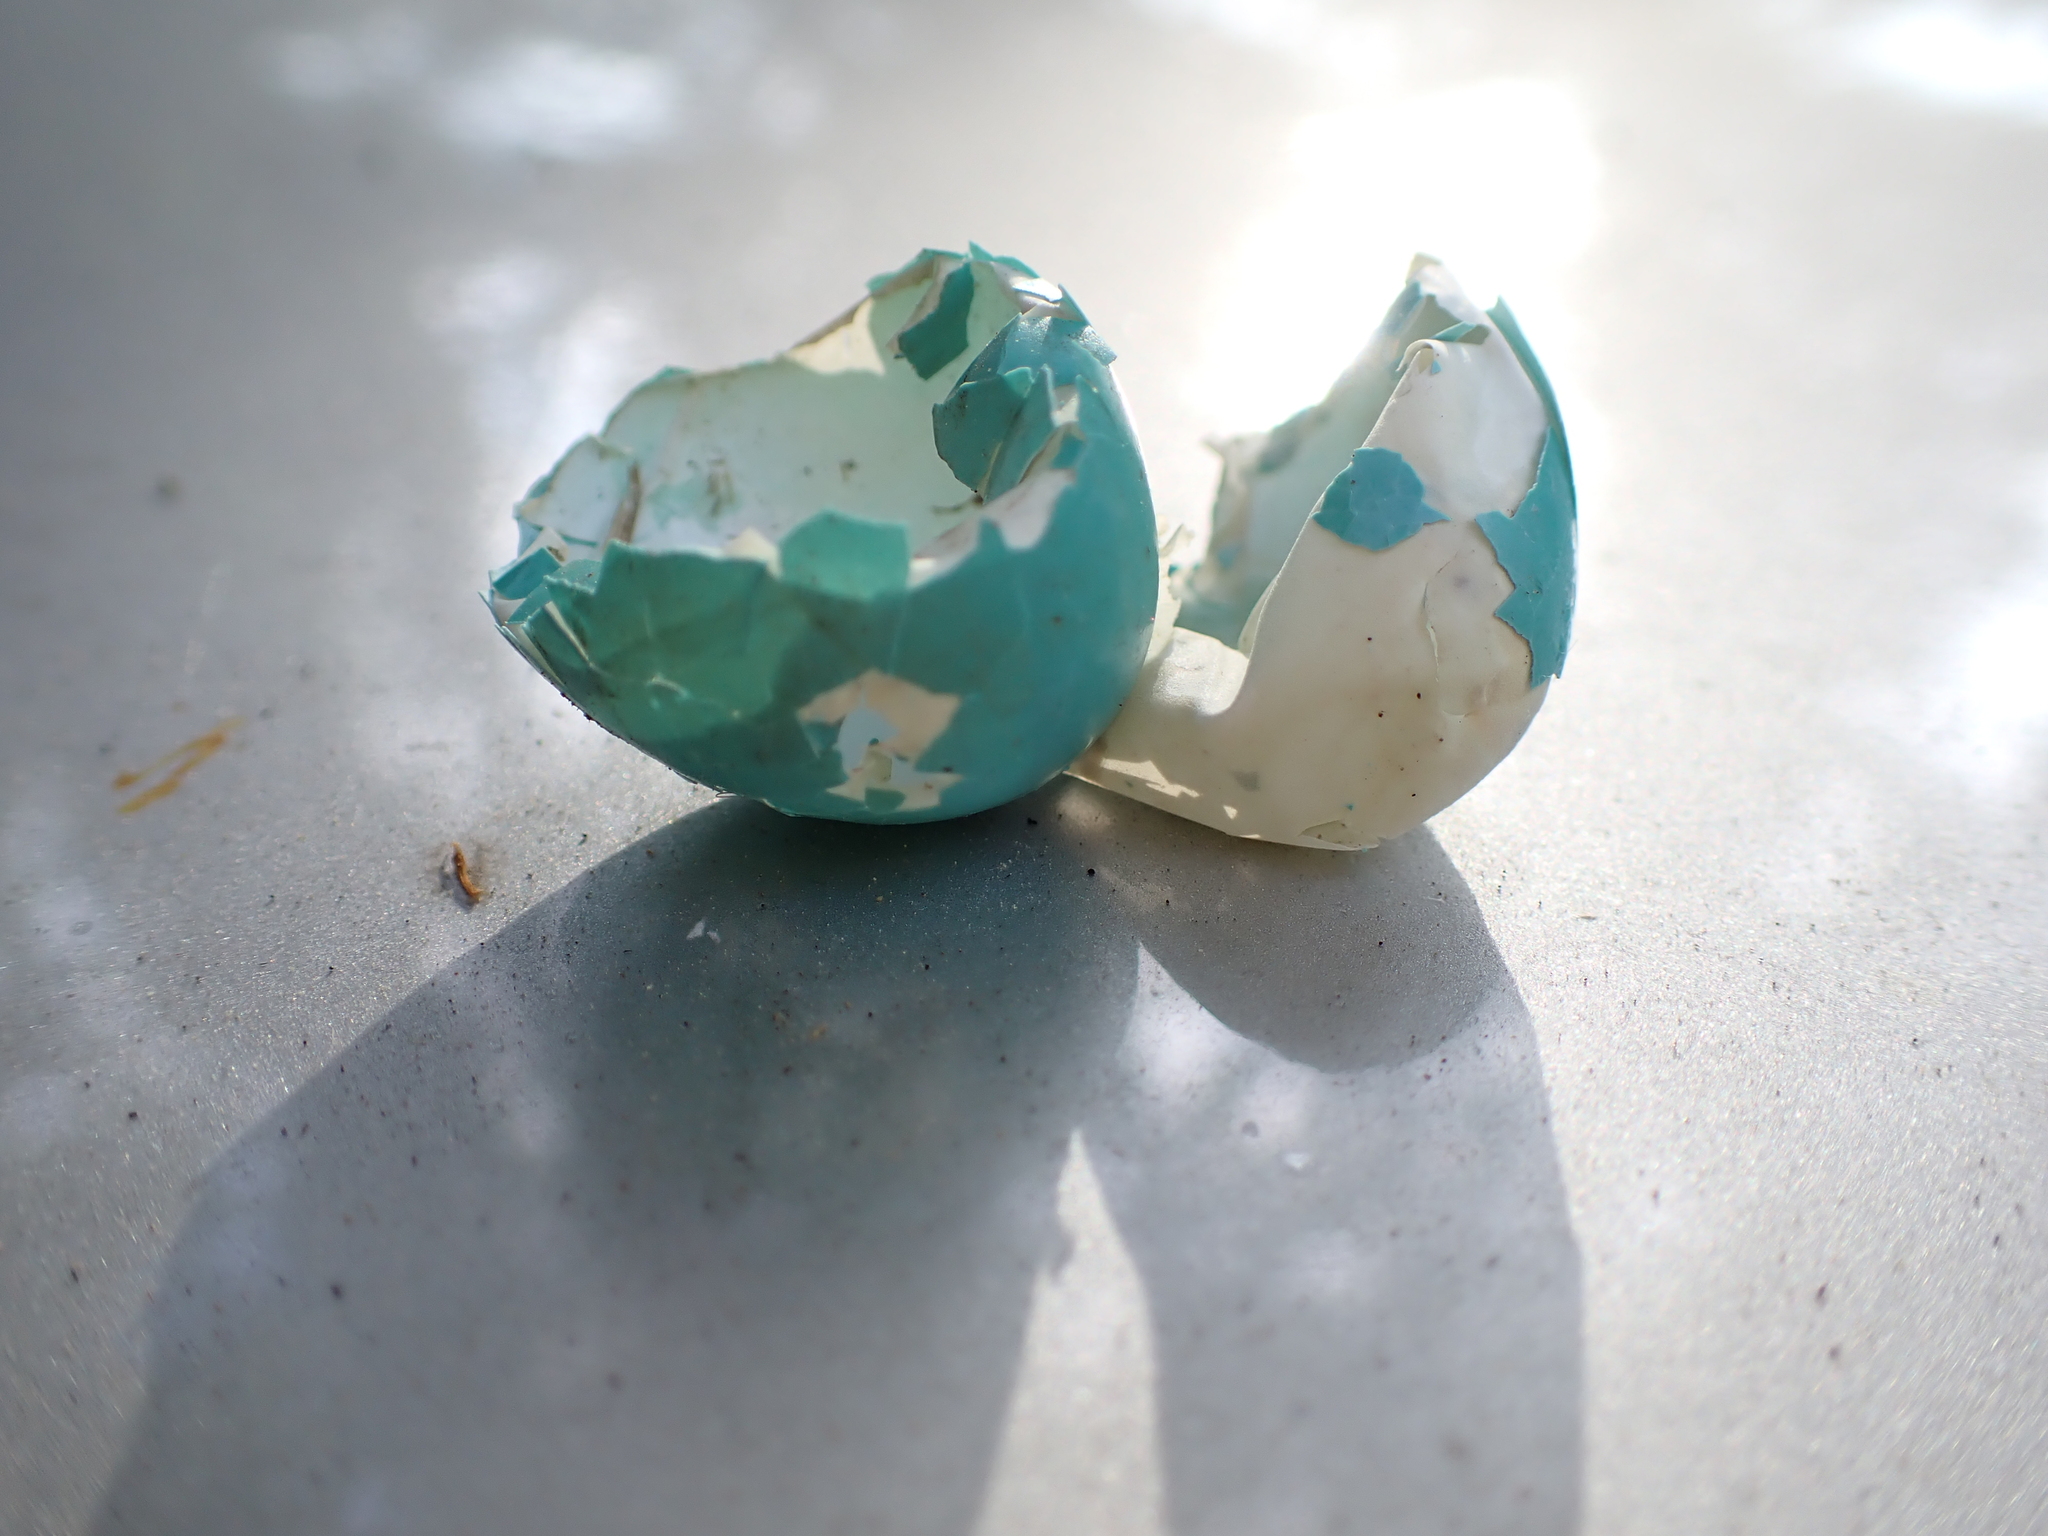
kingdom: Animalia
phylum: Chordata
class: Aves
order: Passeriformes
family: Turdidae
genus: Turdus
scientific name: Turdus migratorius
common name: American robin
